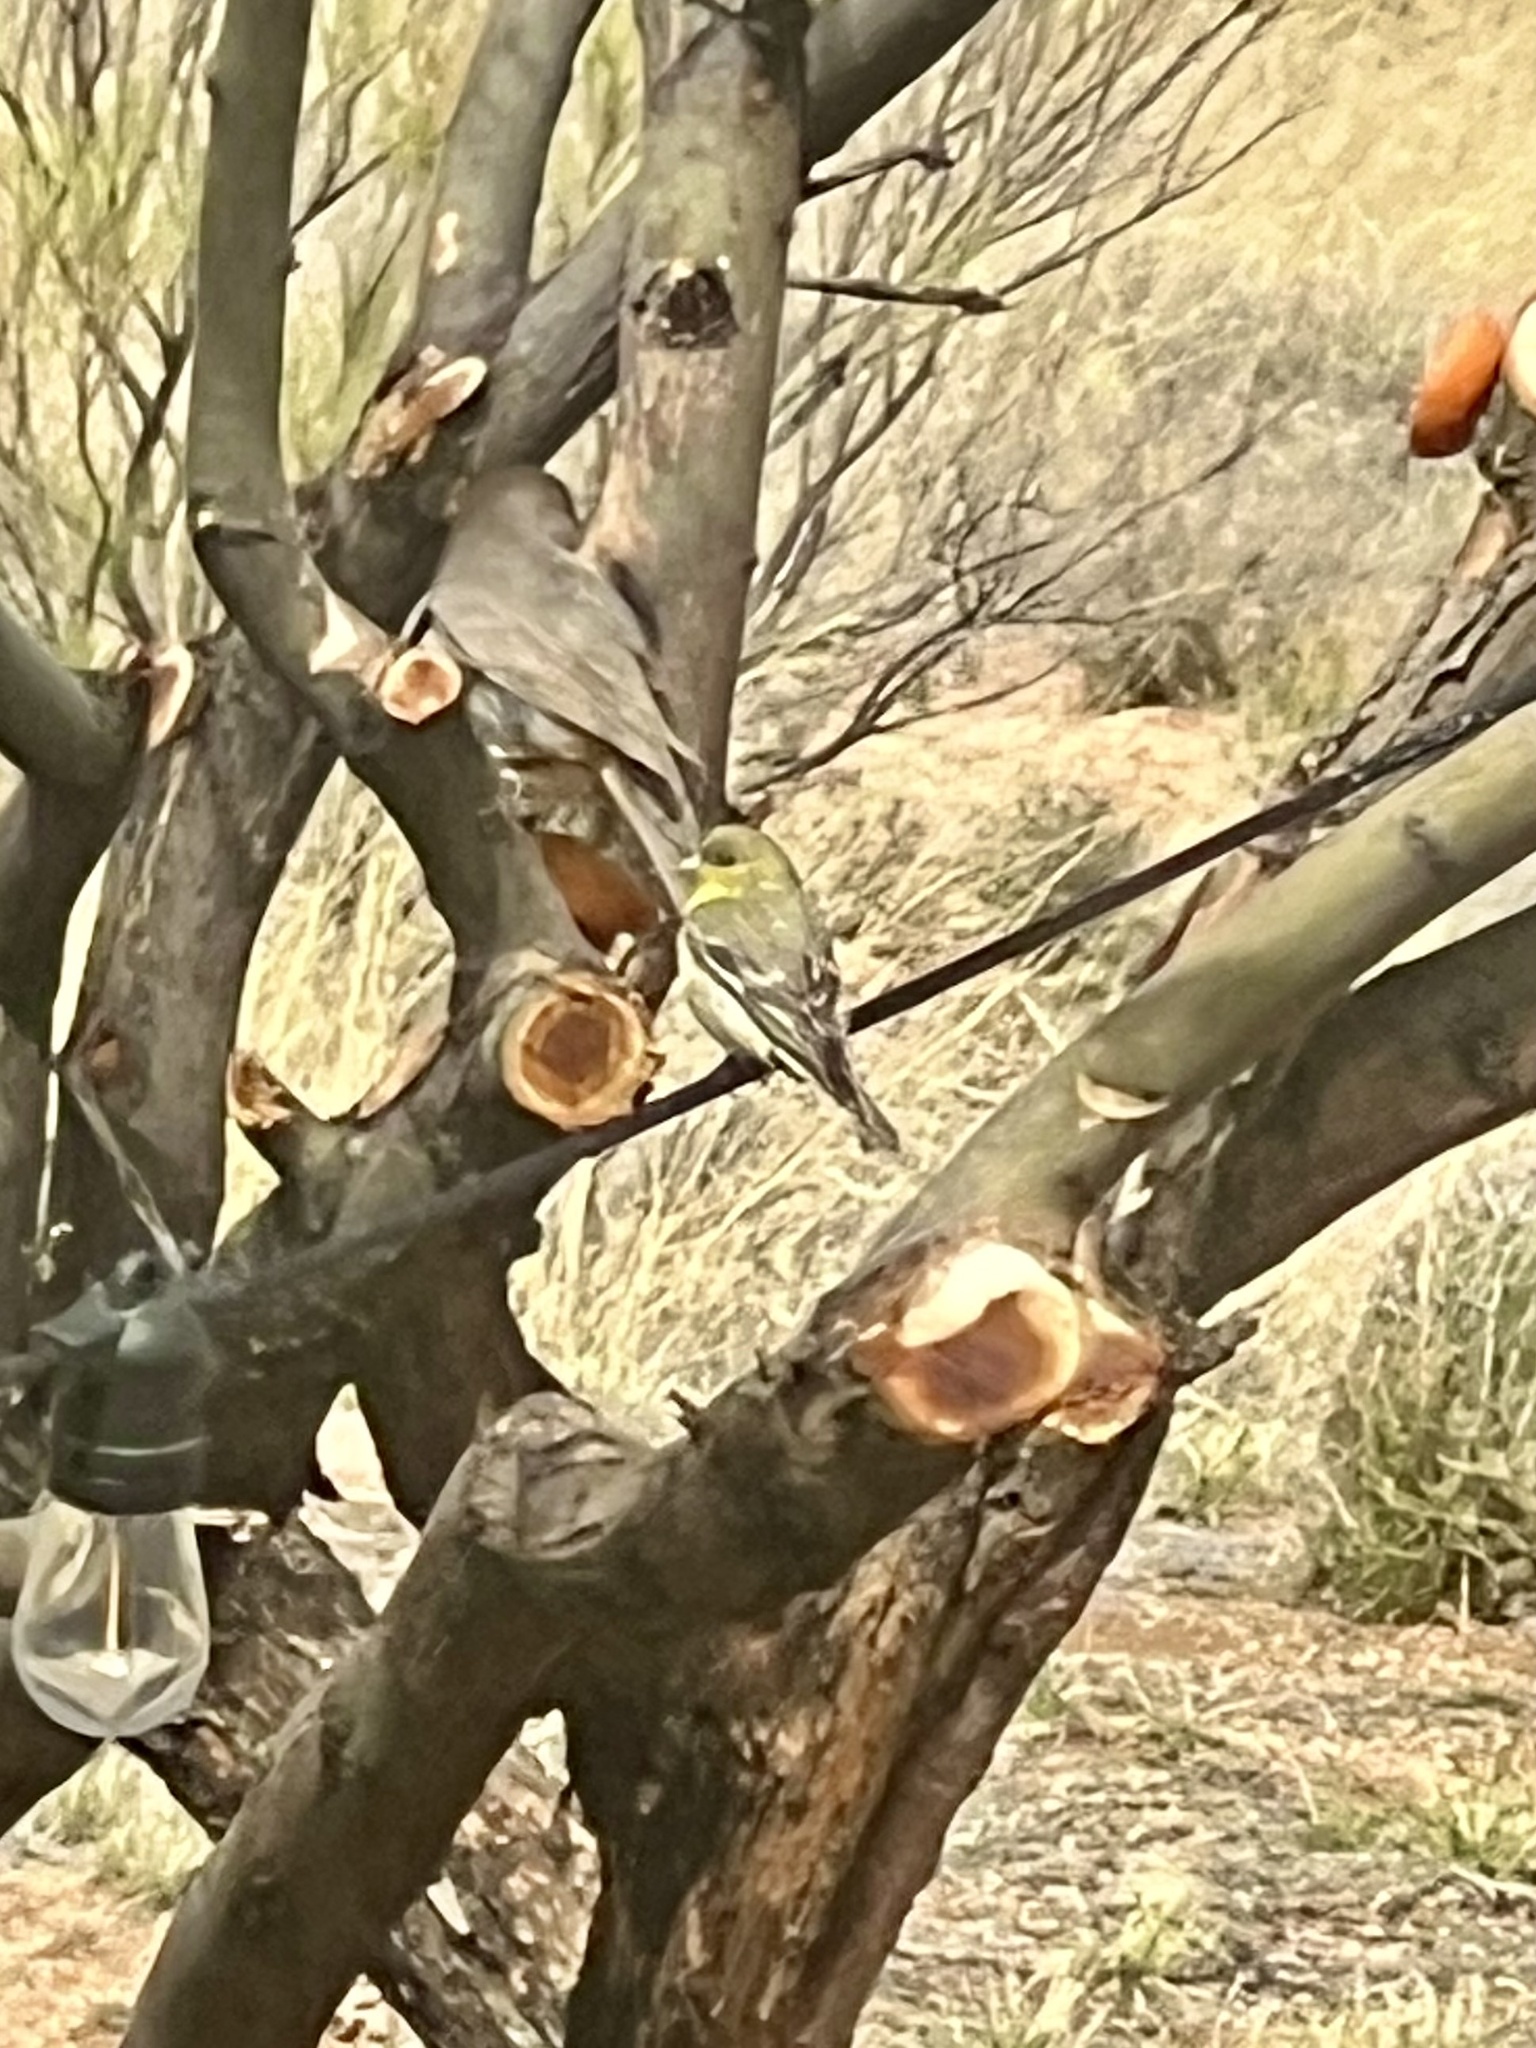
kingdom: Animalia
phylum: Chordata
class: Aves
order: Passeriformes
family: Fringillidae
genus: Spinus
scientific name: Spinus psaltria
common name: Lesser goldfinch
